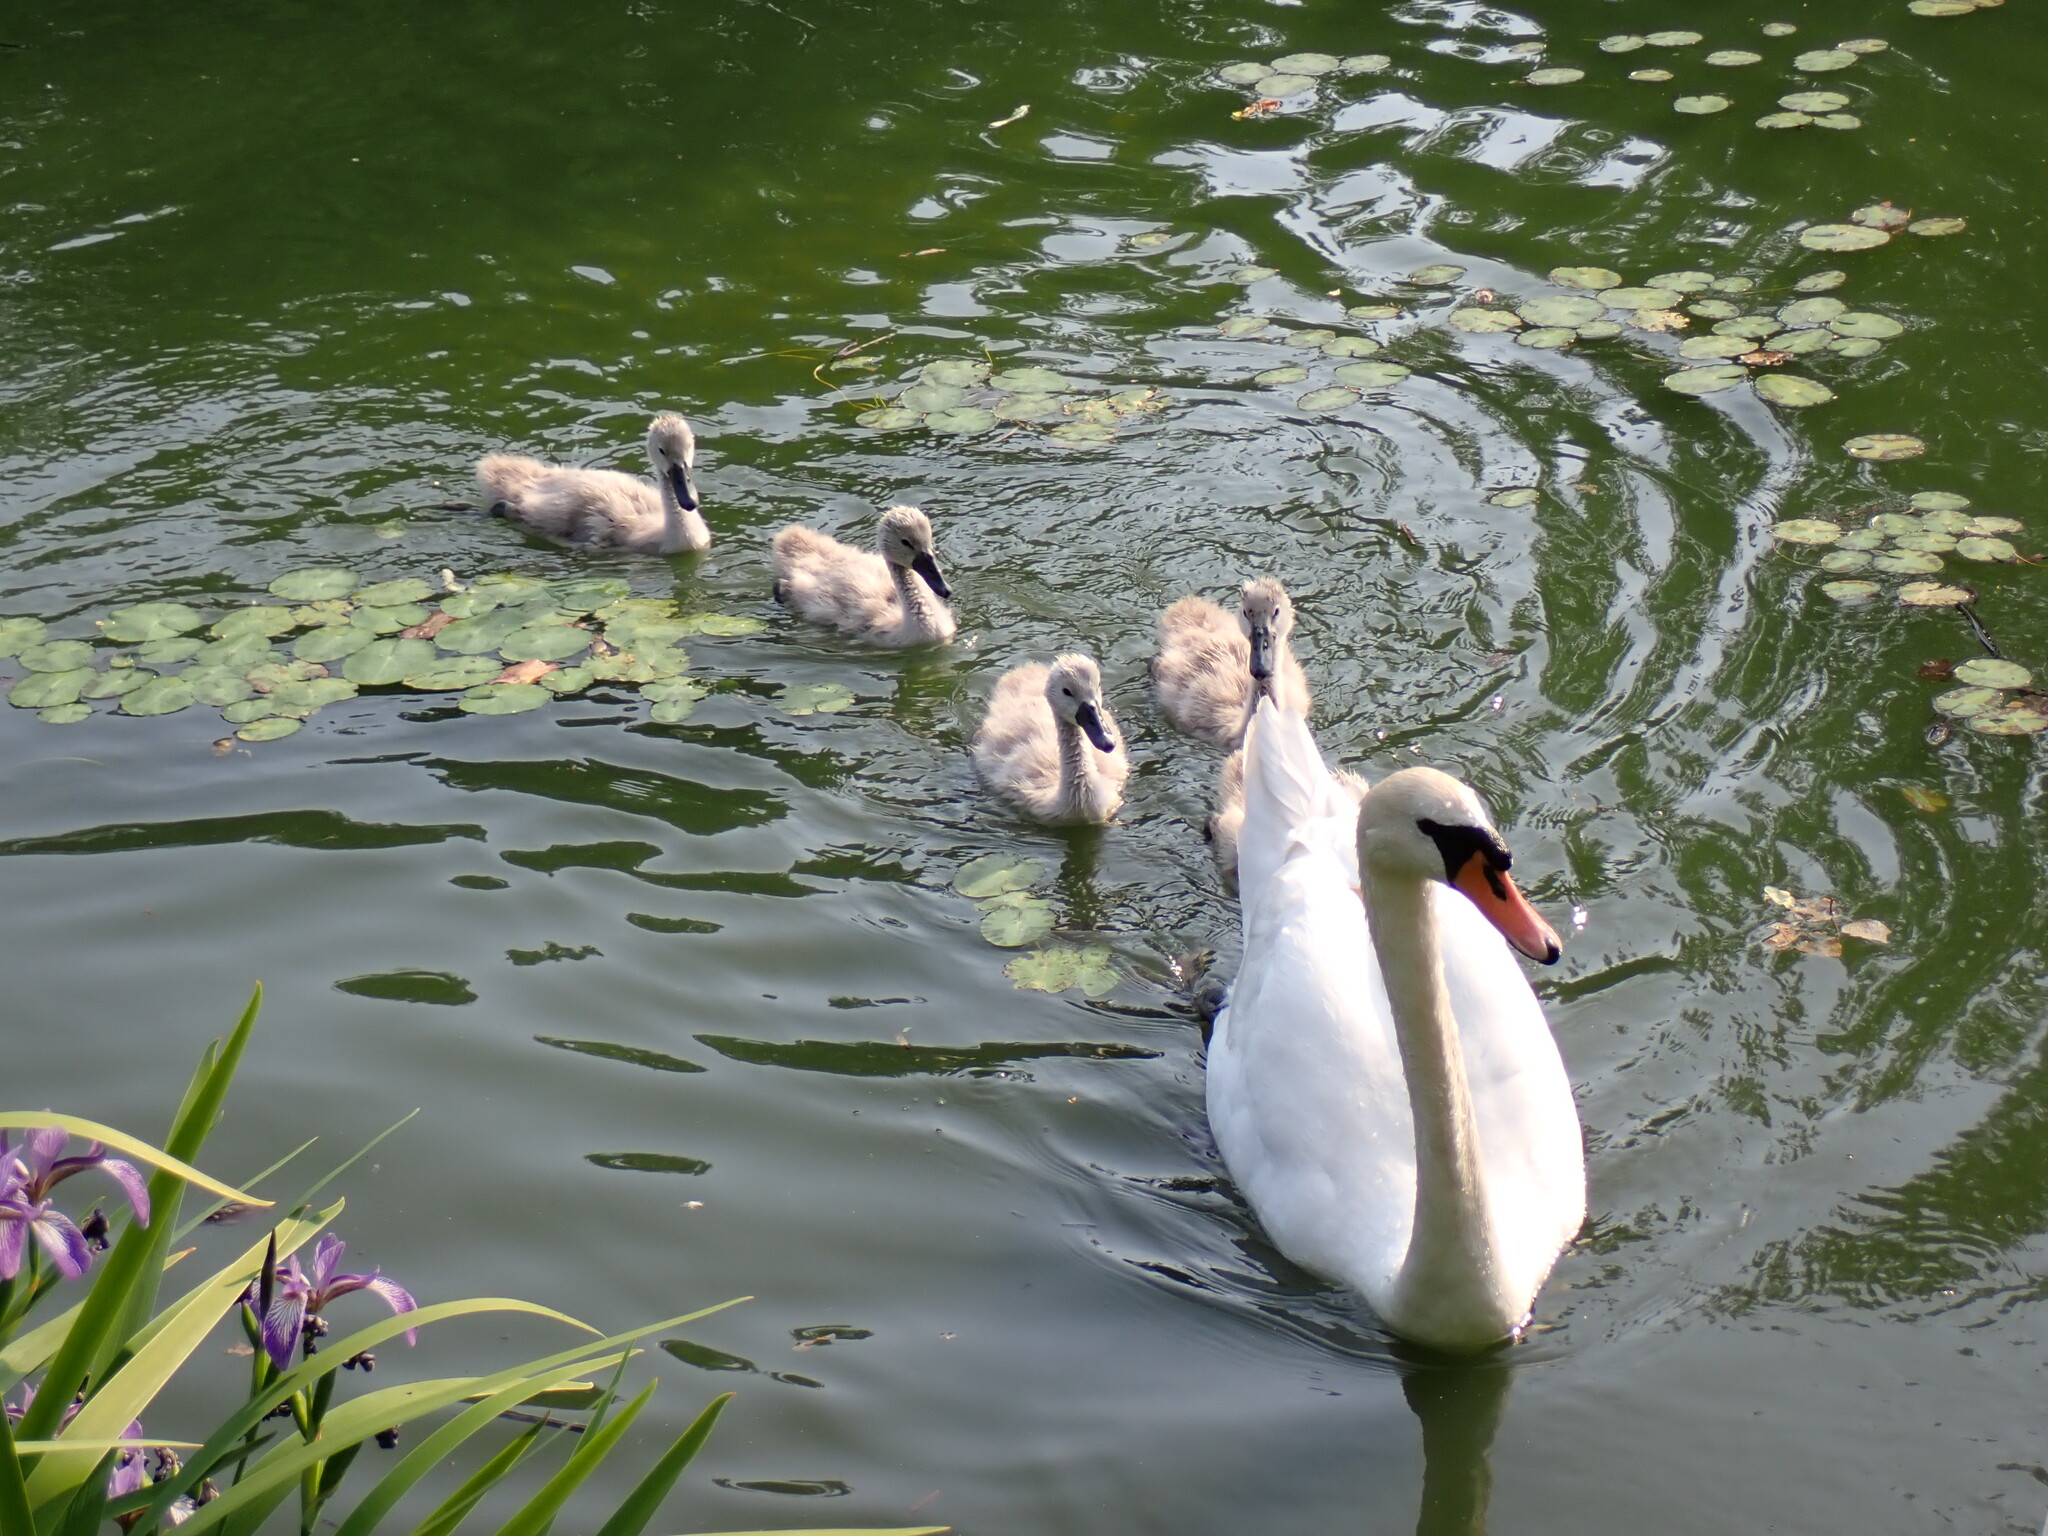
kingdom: Animalia
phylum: Chordata
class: Aves
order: Anseriformes
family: Anatidae
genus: Cygnus
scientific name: Cygnus olor
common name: Mute swan
